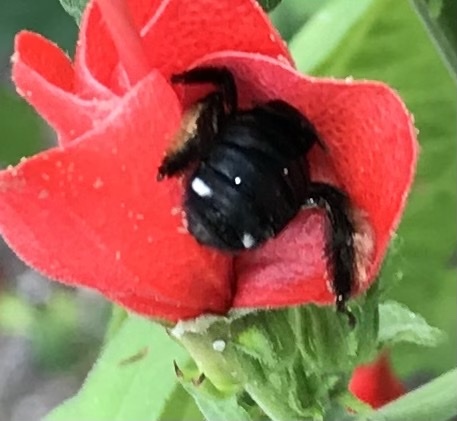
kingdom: Animalia
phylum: Arthropoda
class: Insecta
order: Hymenoptera
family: Apidae
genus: Melissodes
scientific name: Melissodes bimaculatus
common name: Two-spotted long-horned bee
